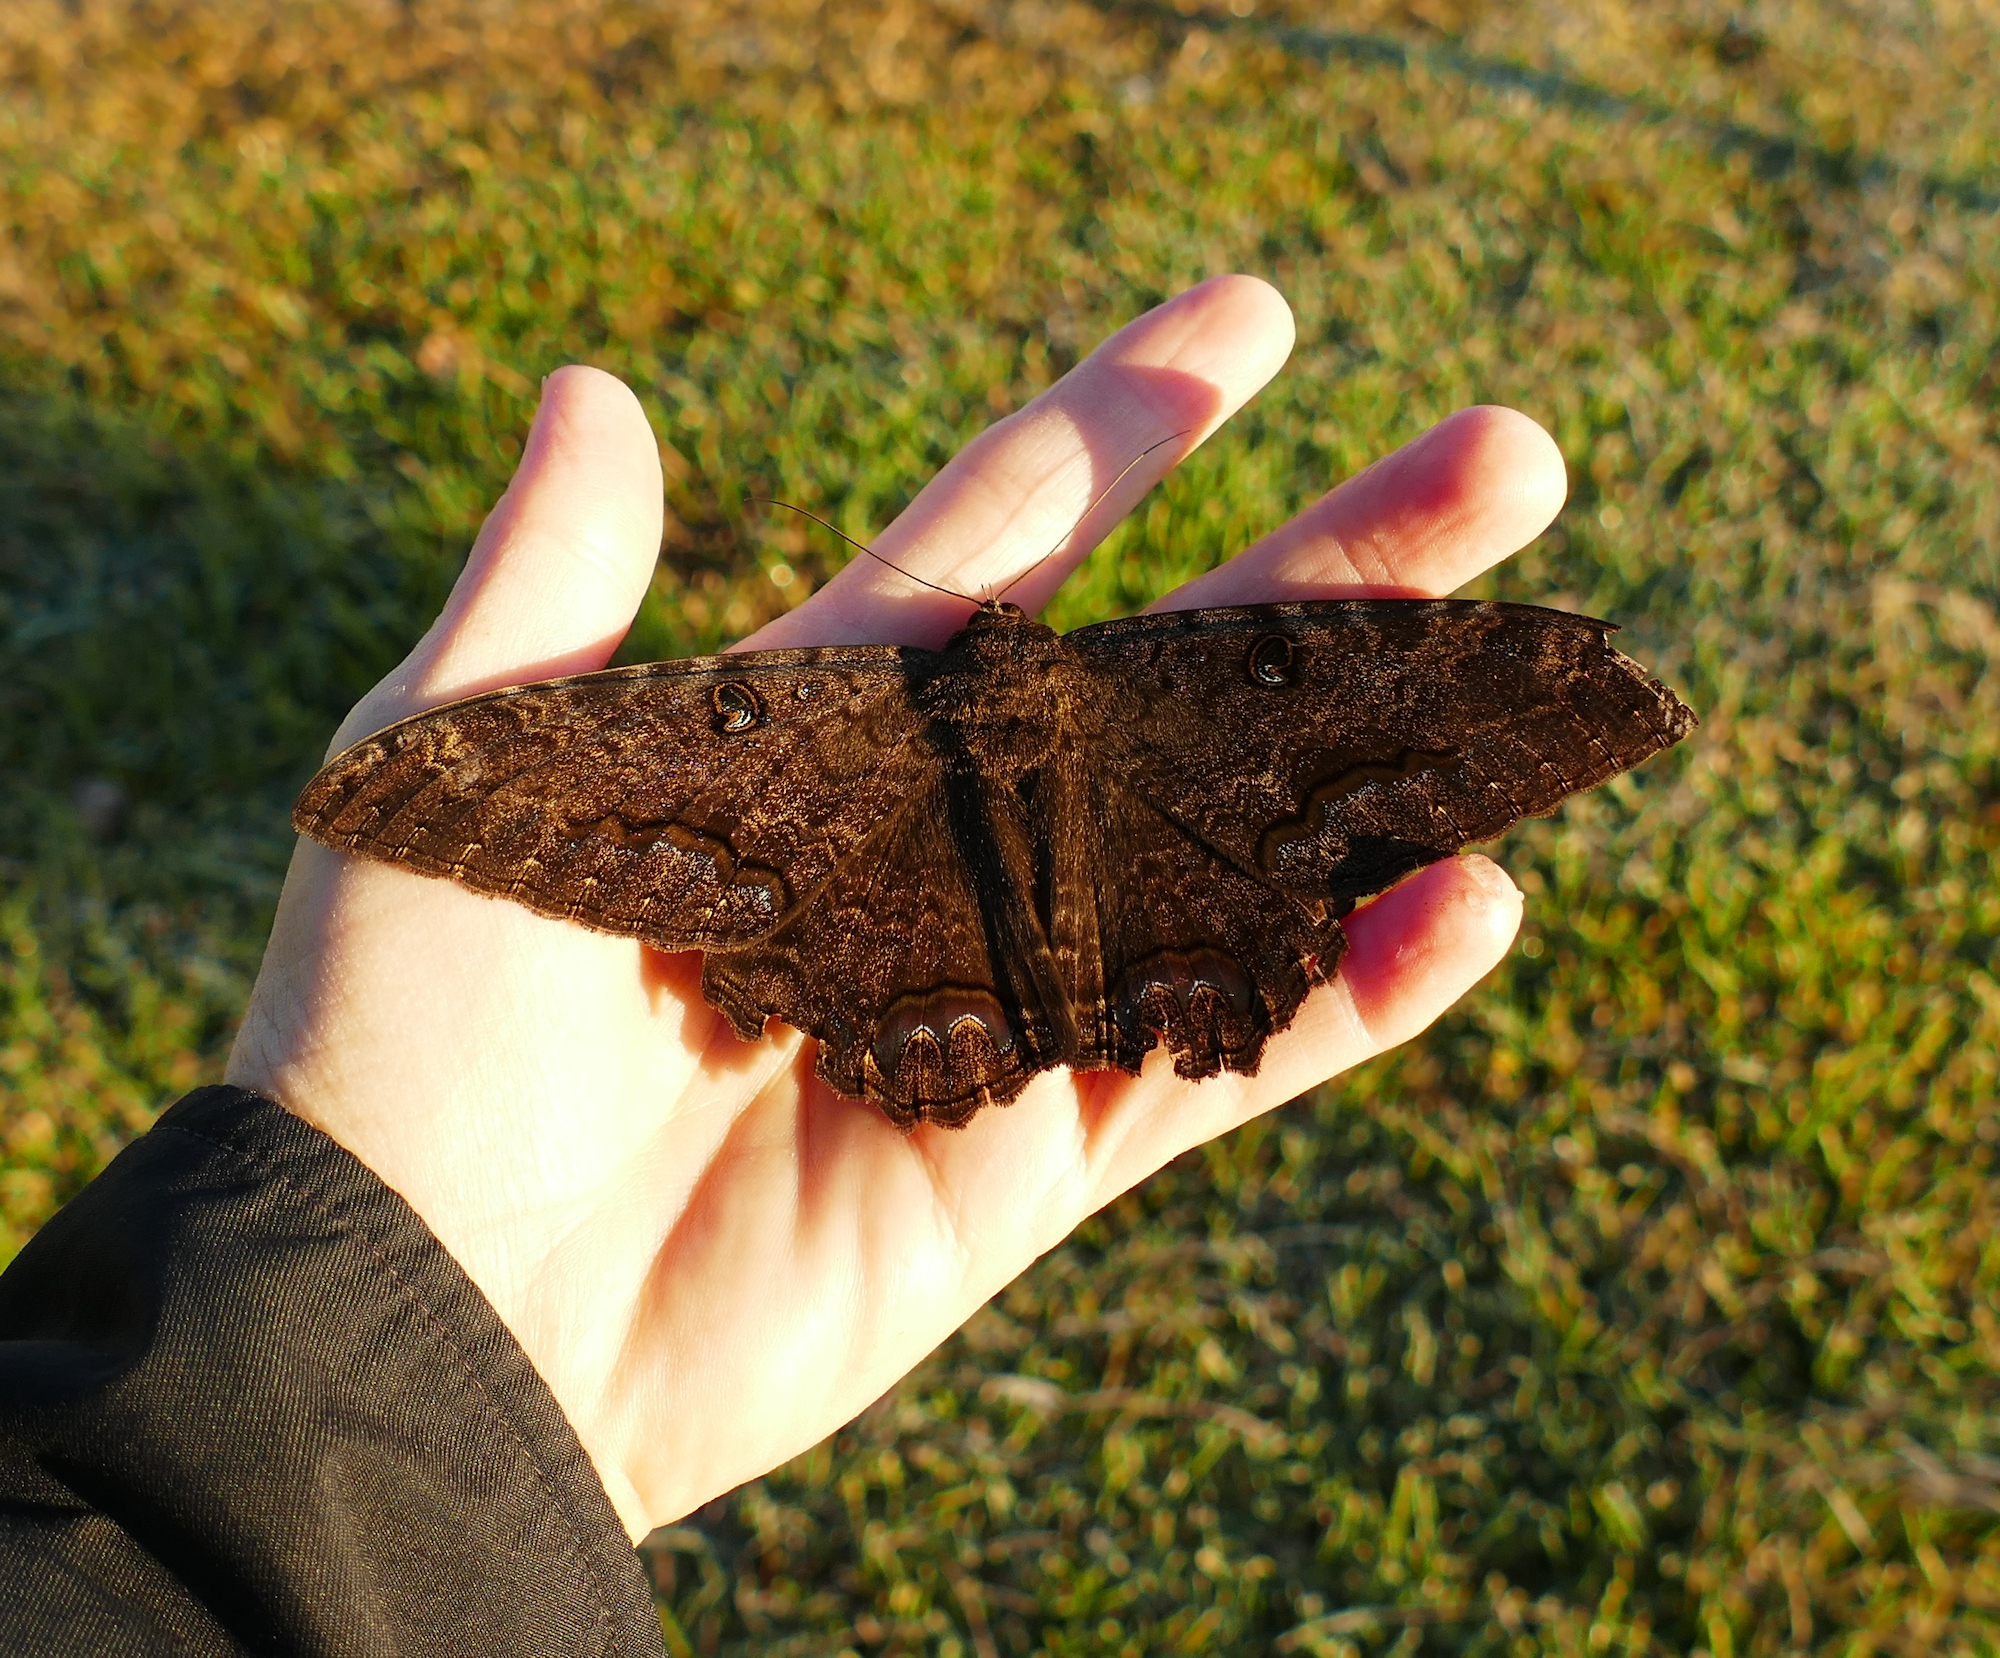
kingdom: Animalia
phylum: Arthropoda
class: Insecta
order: Lepidoptera
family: Erebidae
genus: Ascalapha
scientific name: Ascalapha odorata
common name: Black witch
